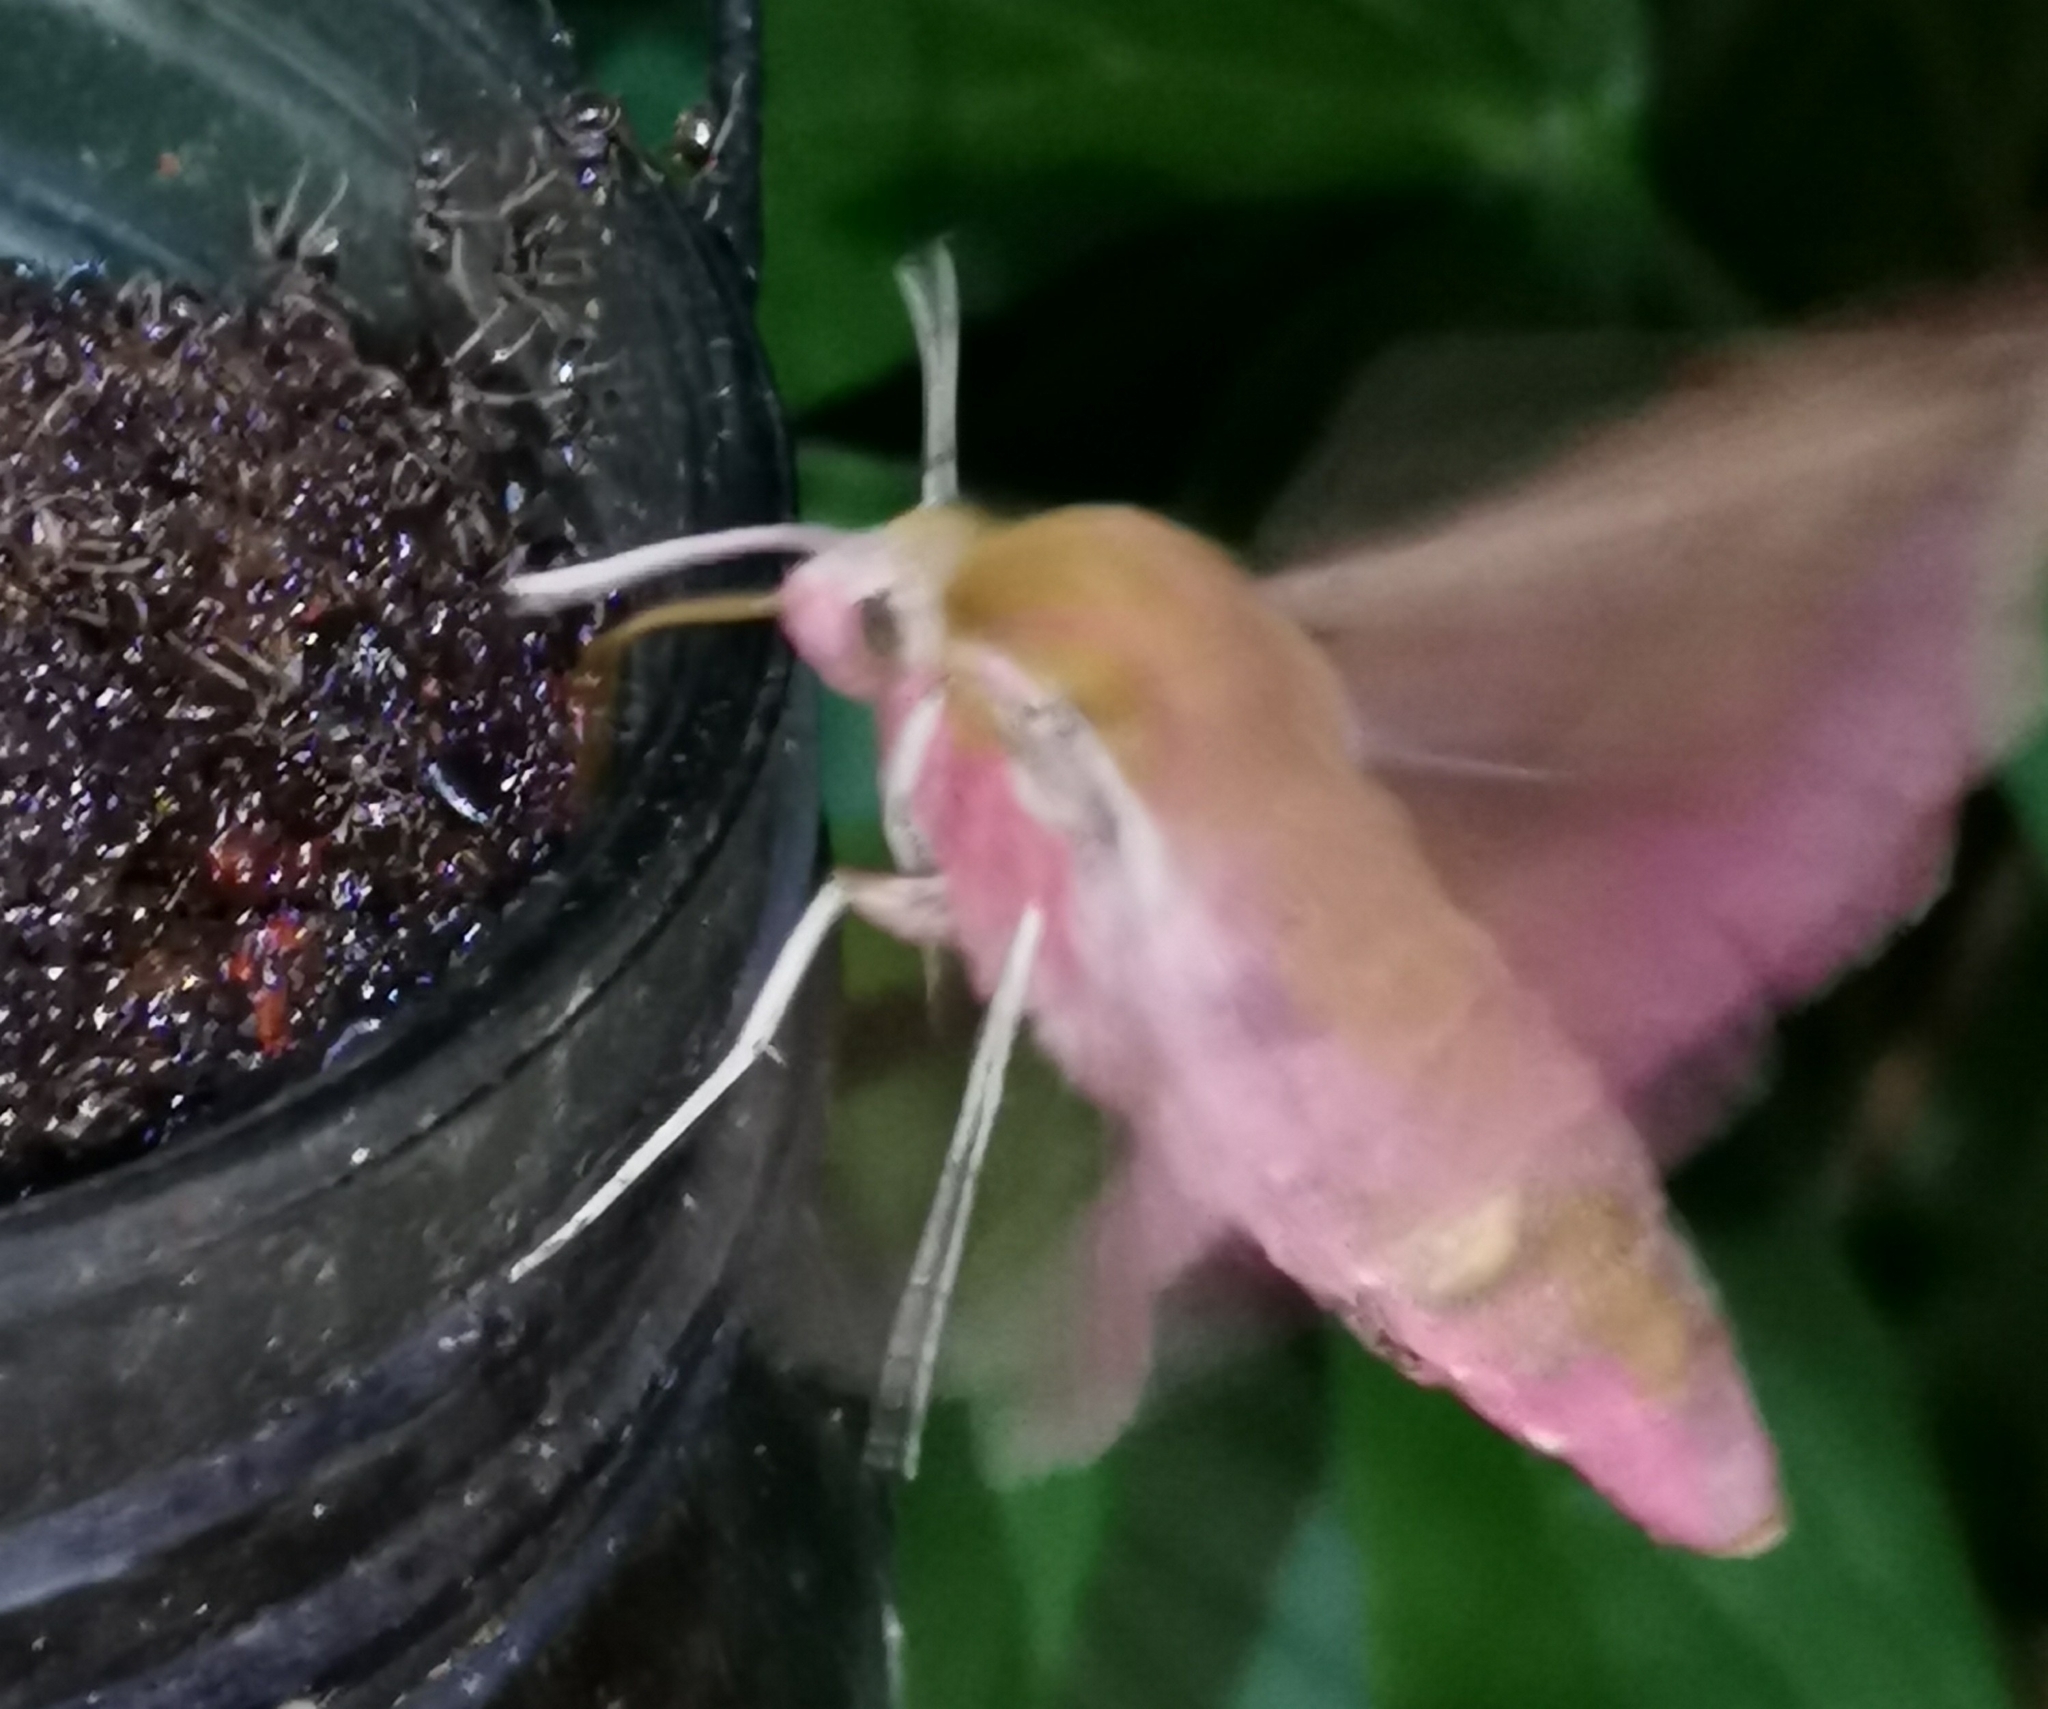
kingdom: Animalia
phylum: Arthropoda
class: Insecta
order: Lepidoptera
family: Sphingidae
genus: Deilephila
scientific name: Deilephila elpenor
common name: Elephant hawk-moth
